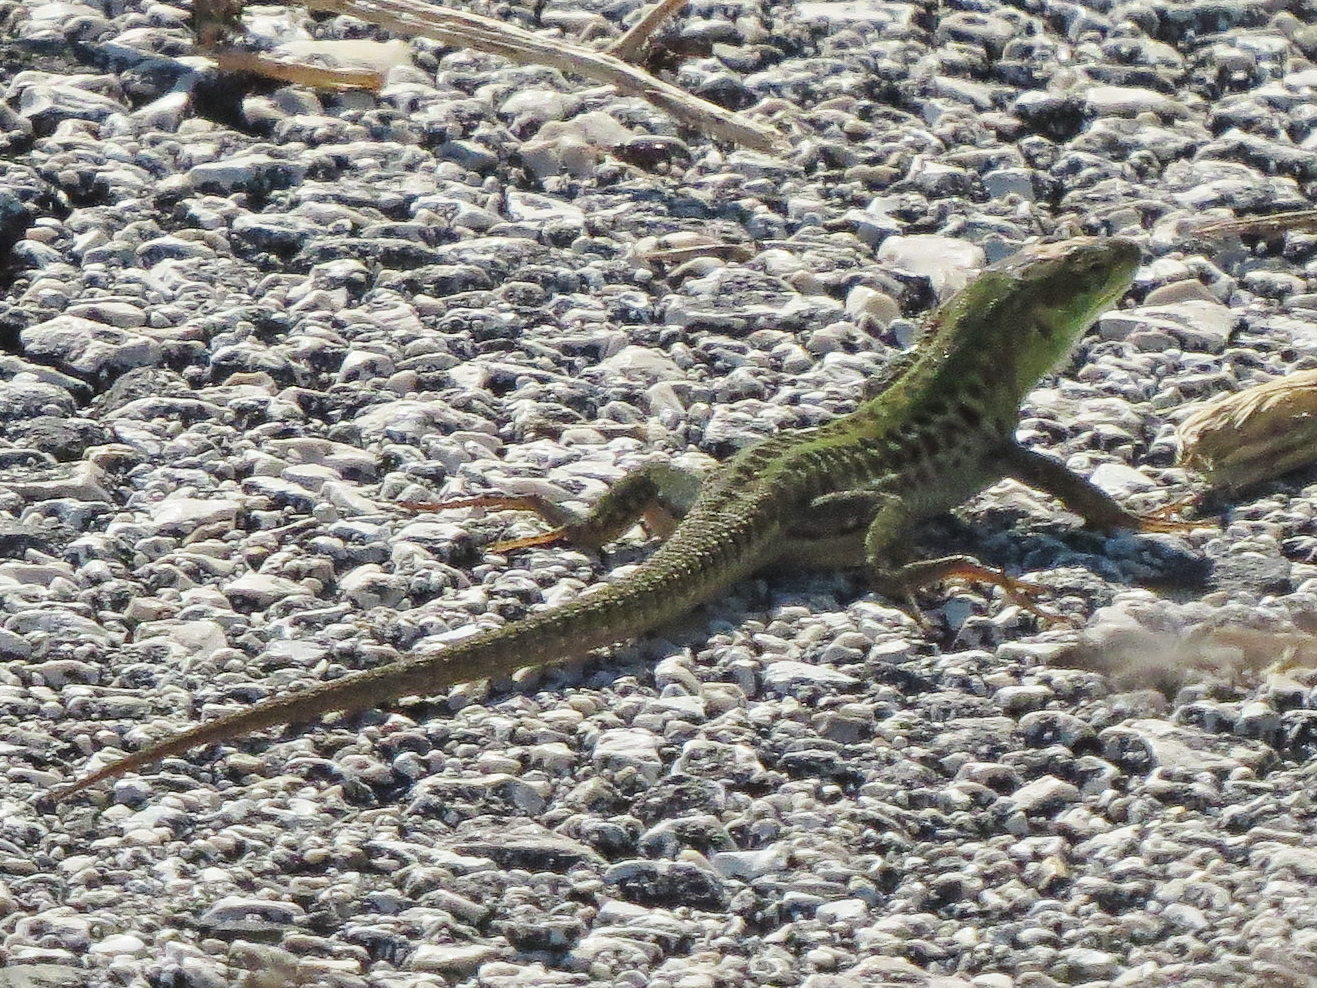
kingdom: Animalia
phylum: Chordata
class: Squamata
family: Lacertidae
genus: Podarcis
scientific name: Podarcis siculus
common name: Italian wall lizard
